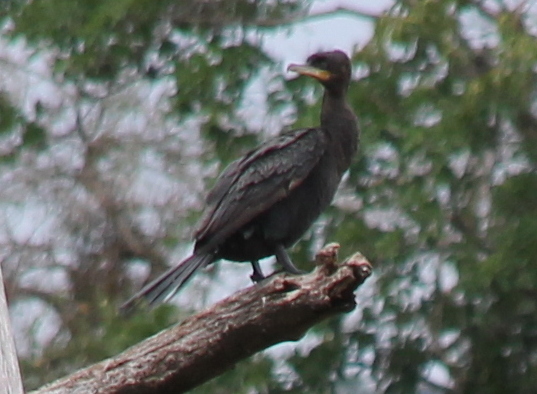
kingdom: Animalia
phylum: Chordata
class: Aves
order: Suliformes
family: Phalacrocoracidae
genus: Phalacrocorax
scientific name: Phalacrocorax brasilianus
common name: Neotropic cormorant
